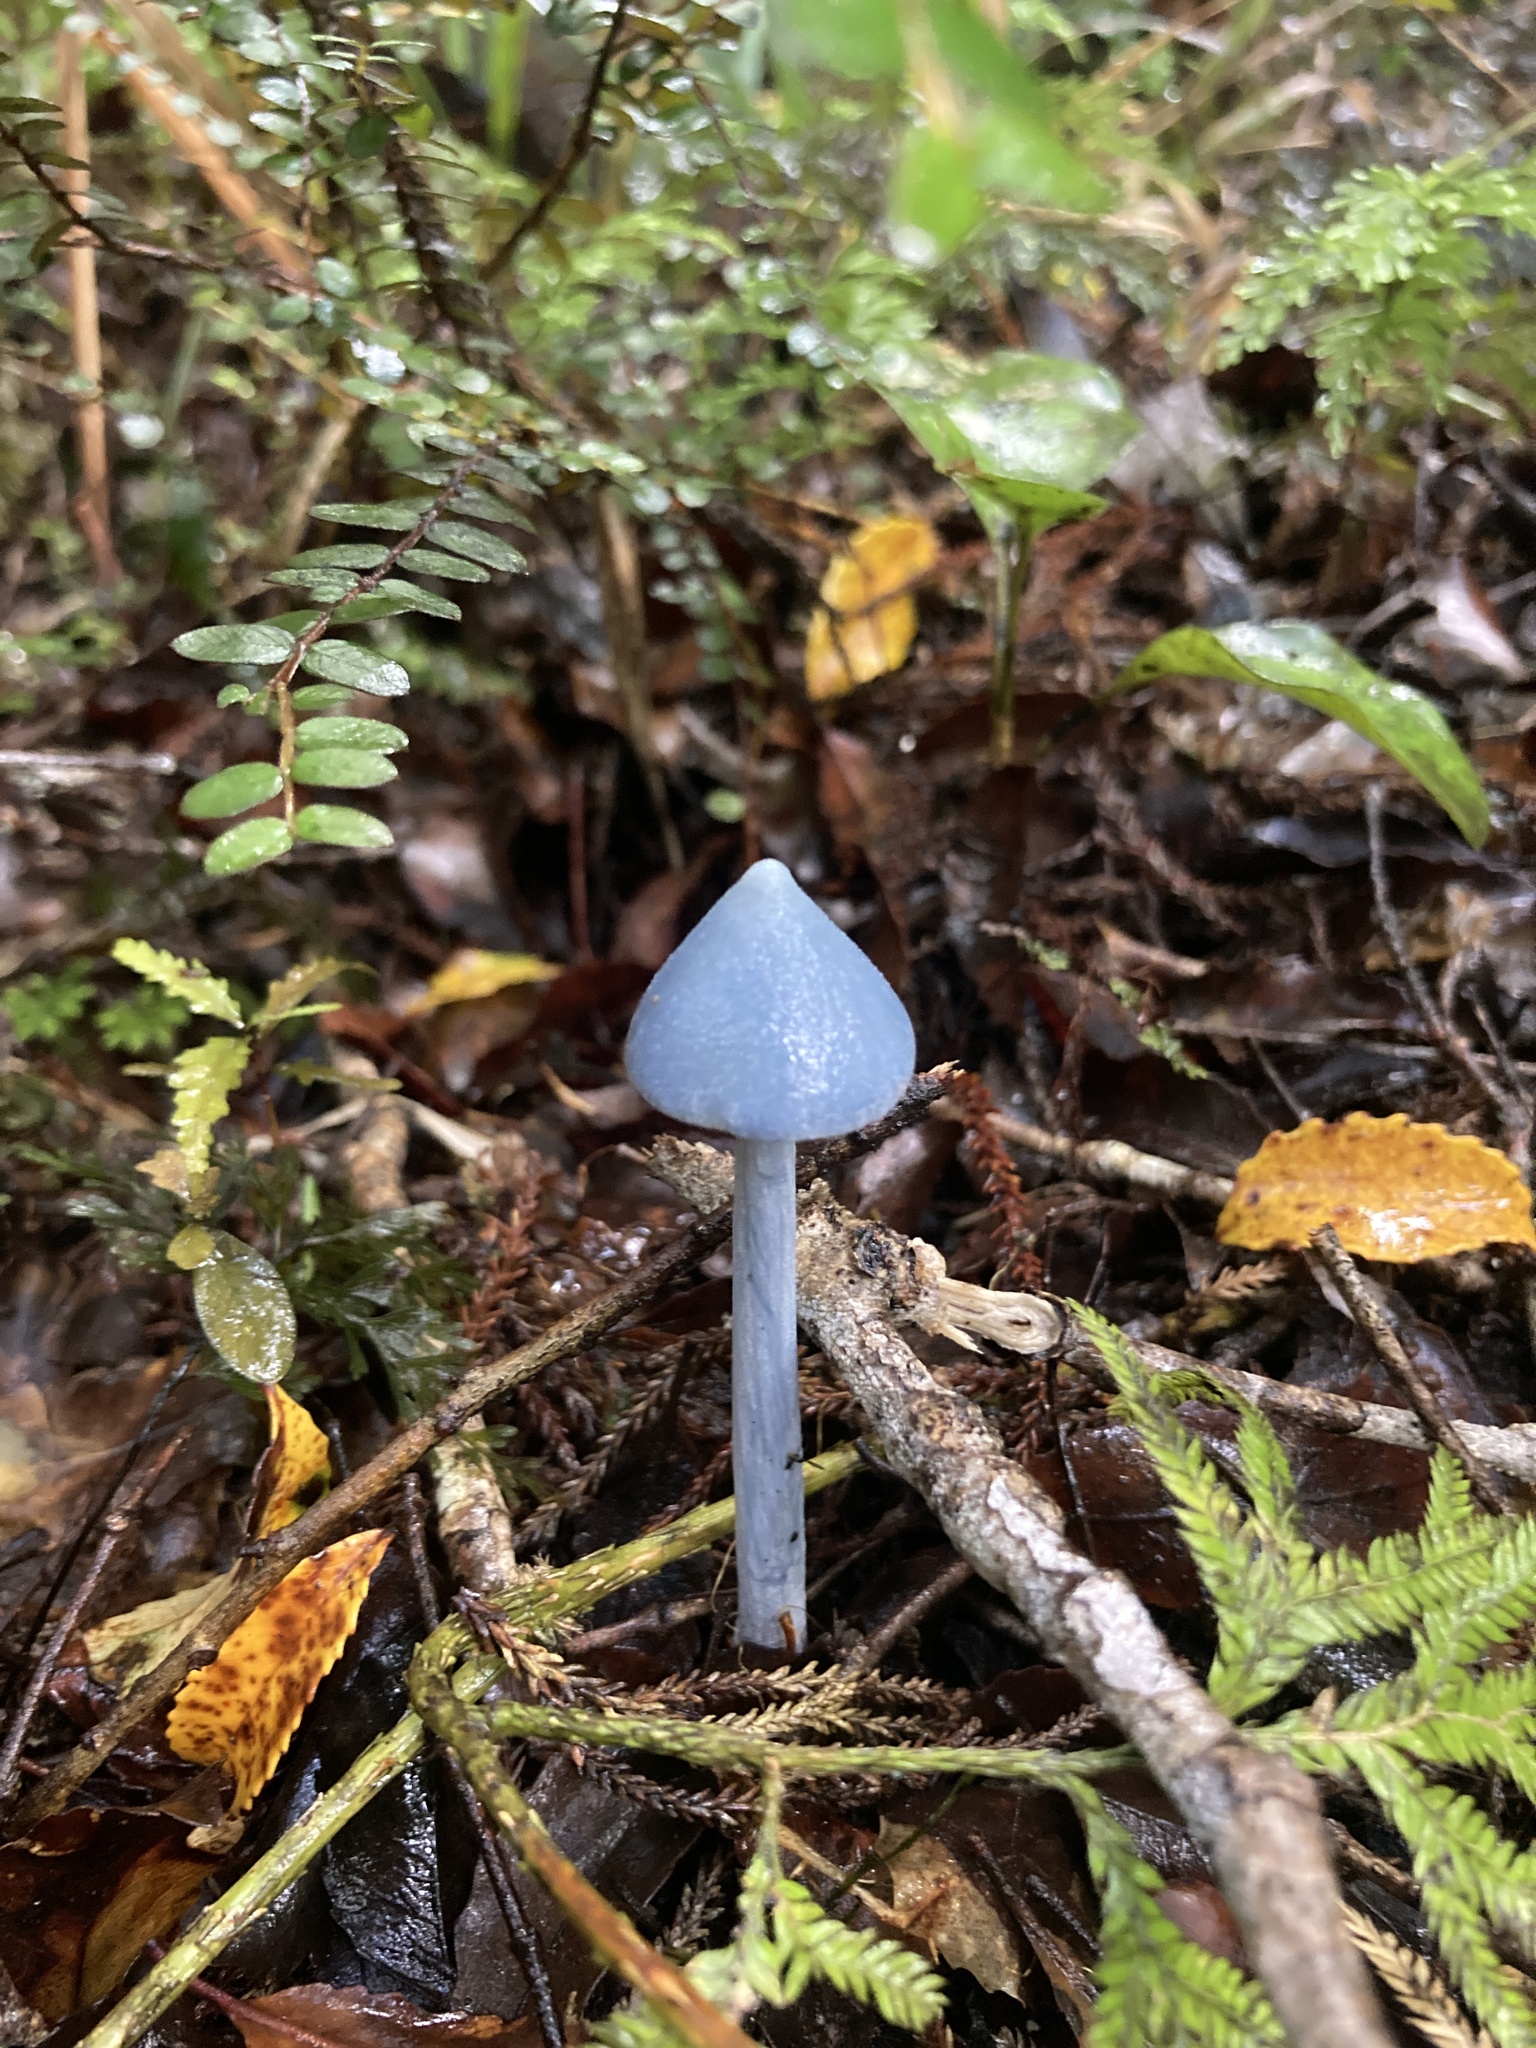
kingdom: Fungi
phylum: Basidiomycota
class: Agaricomycetes
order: Agaricales
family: Entolomataceae
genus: Entoloma
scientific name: Entoloma hochstetteri
